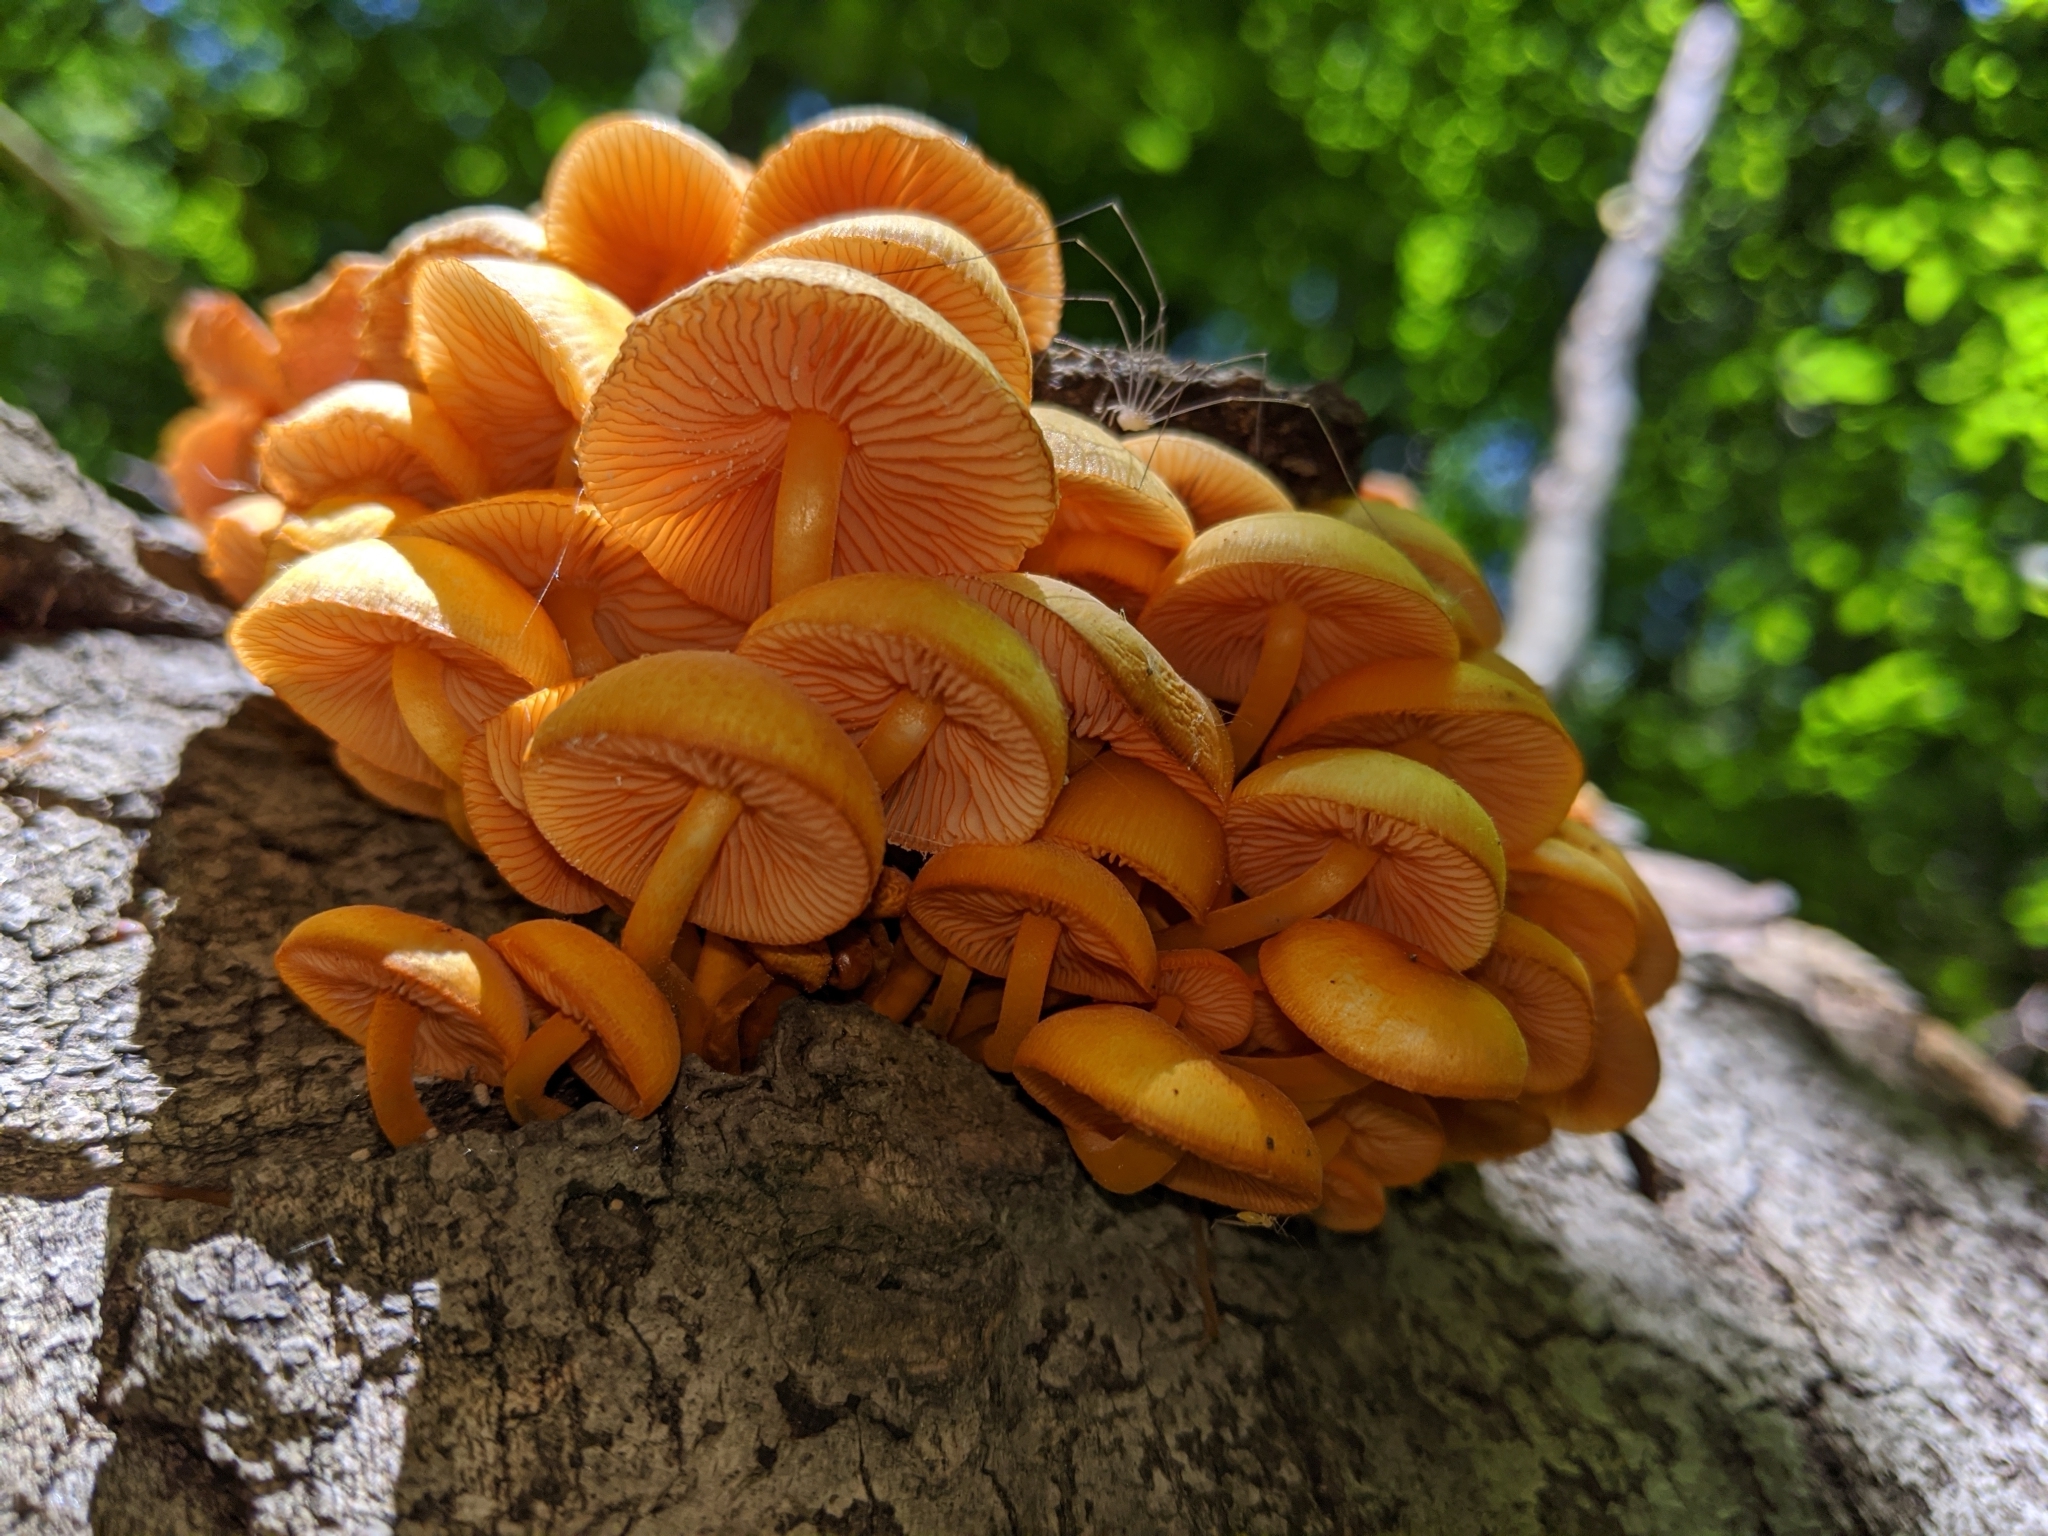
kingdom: Fungi
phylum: Basidiomycota
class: Agaricomycetes
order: Agaricales
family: Mycenaceae
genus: Mycena
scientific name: Mycena leaiana
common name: Orange mycena
